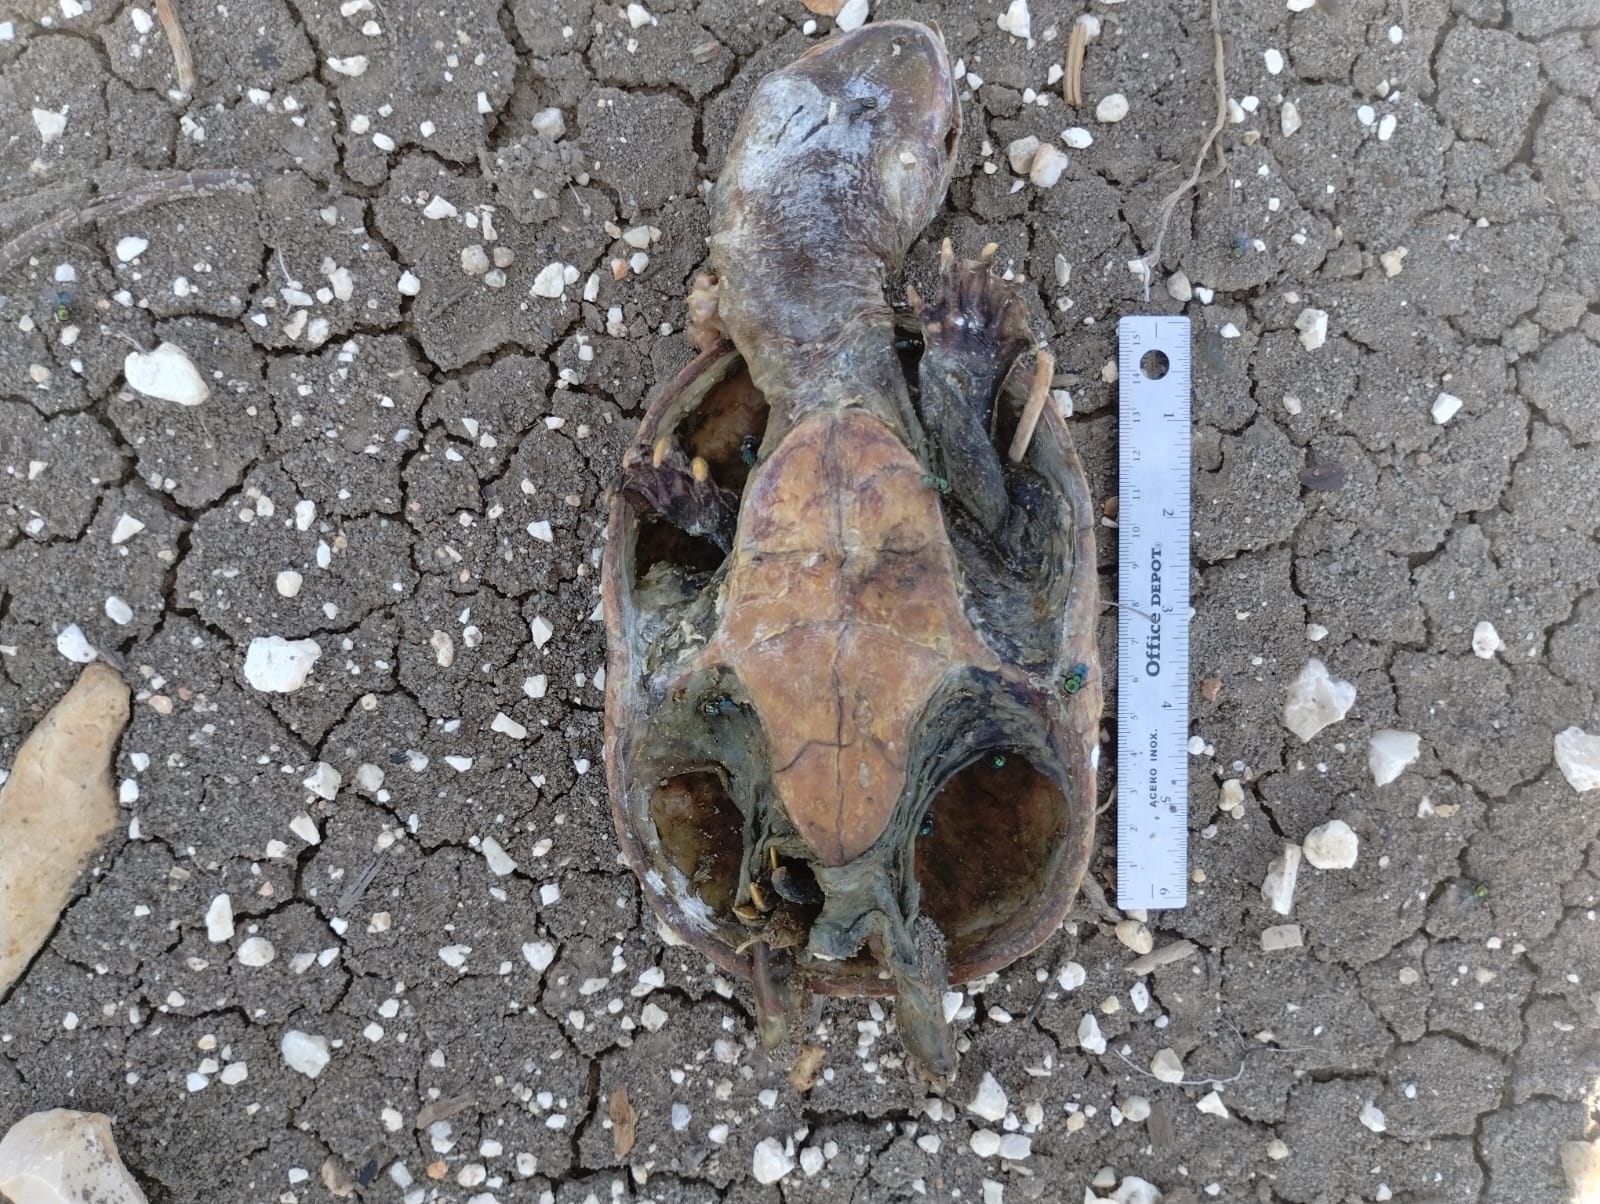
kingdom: Animalia
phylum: Chordata
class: Testudines
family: Kinosternidae
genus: Claudius
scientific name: Claudius angustatus
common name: Narrow-bridged musk turtle
